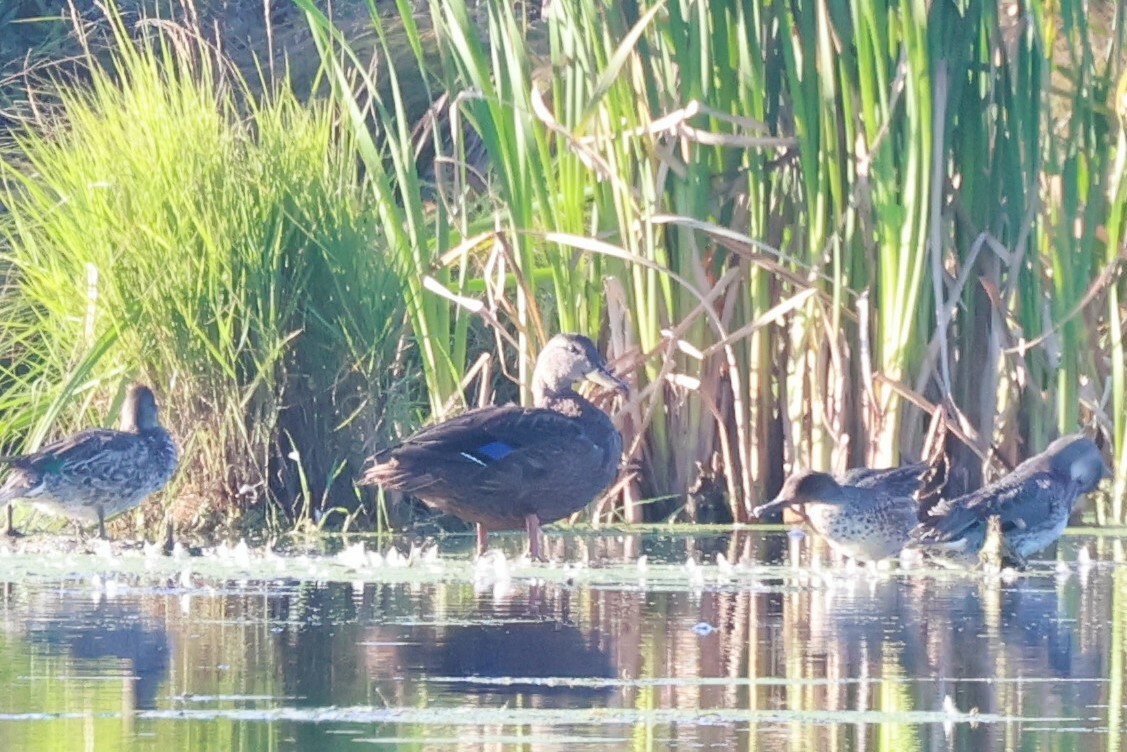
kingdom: Animalia
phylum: Chordata
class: Aves
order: Anseriformes
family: Anatidae
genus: Anas
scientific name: Anas rubripes
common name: American black duck
